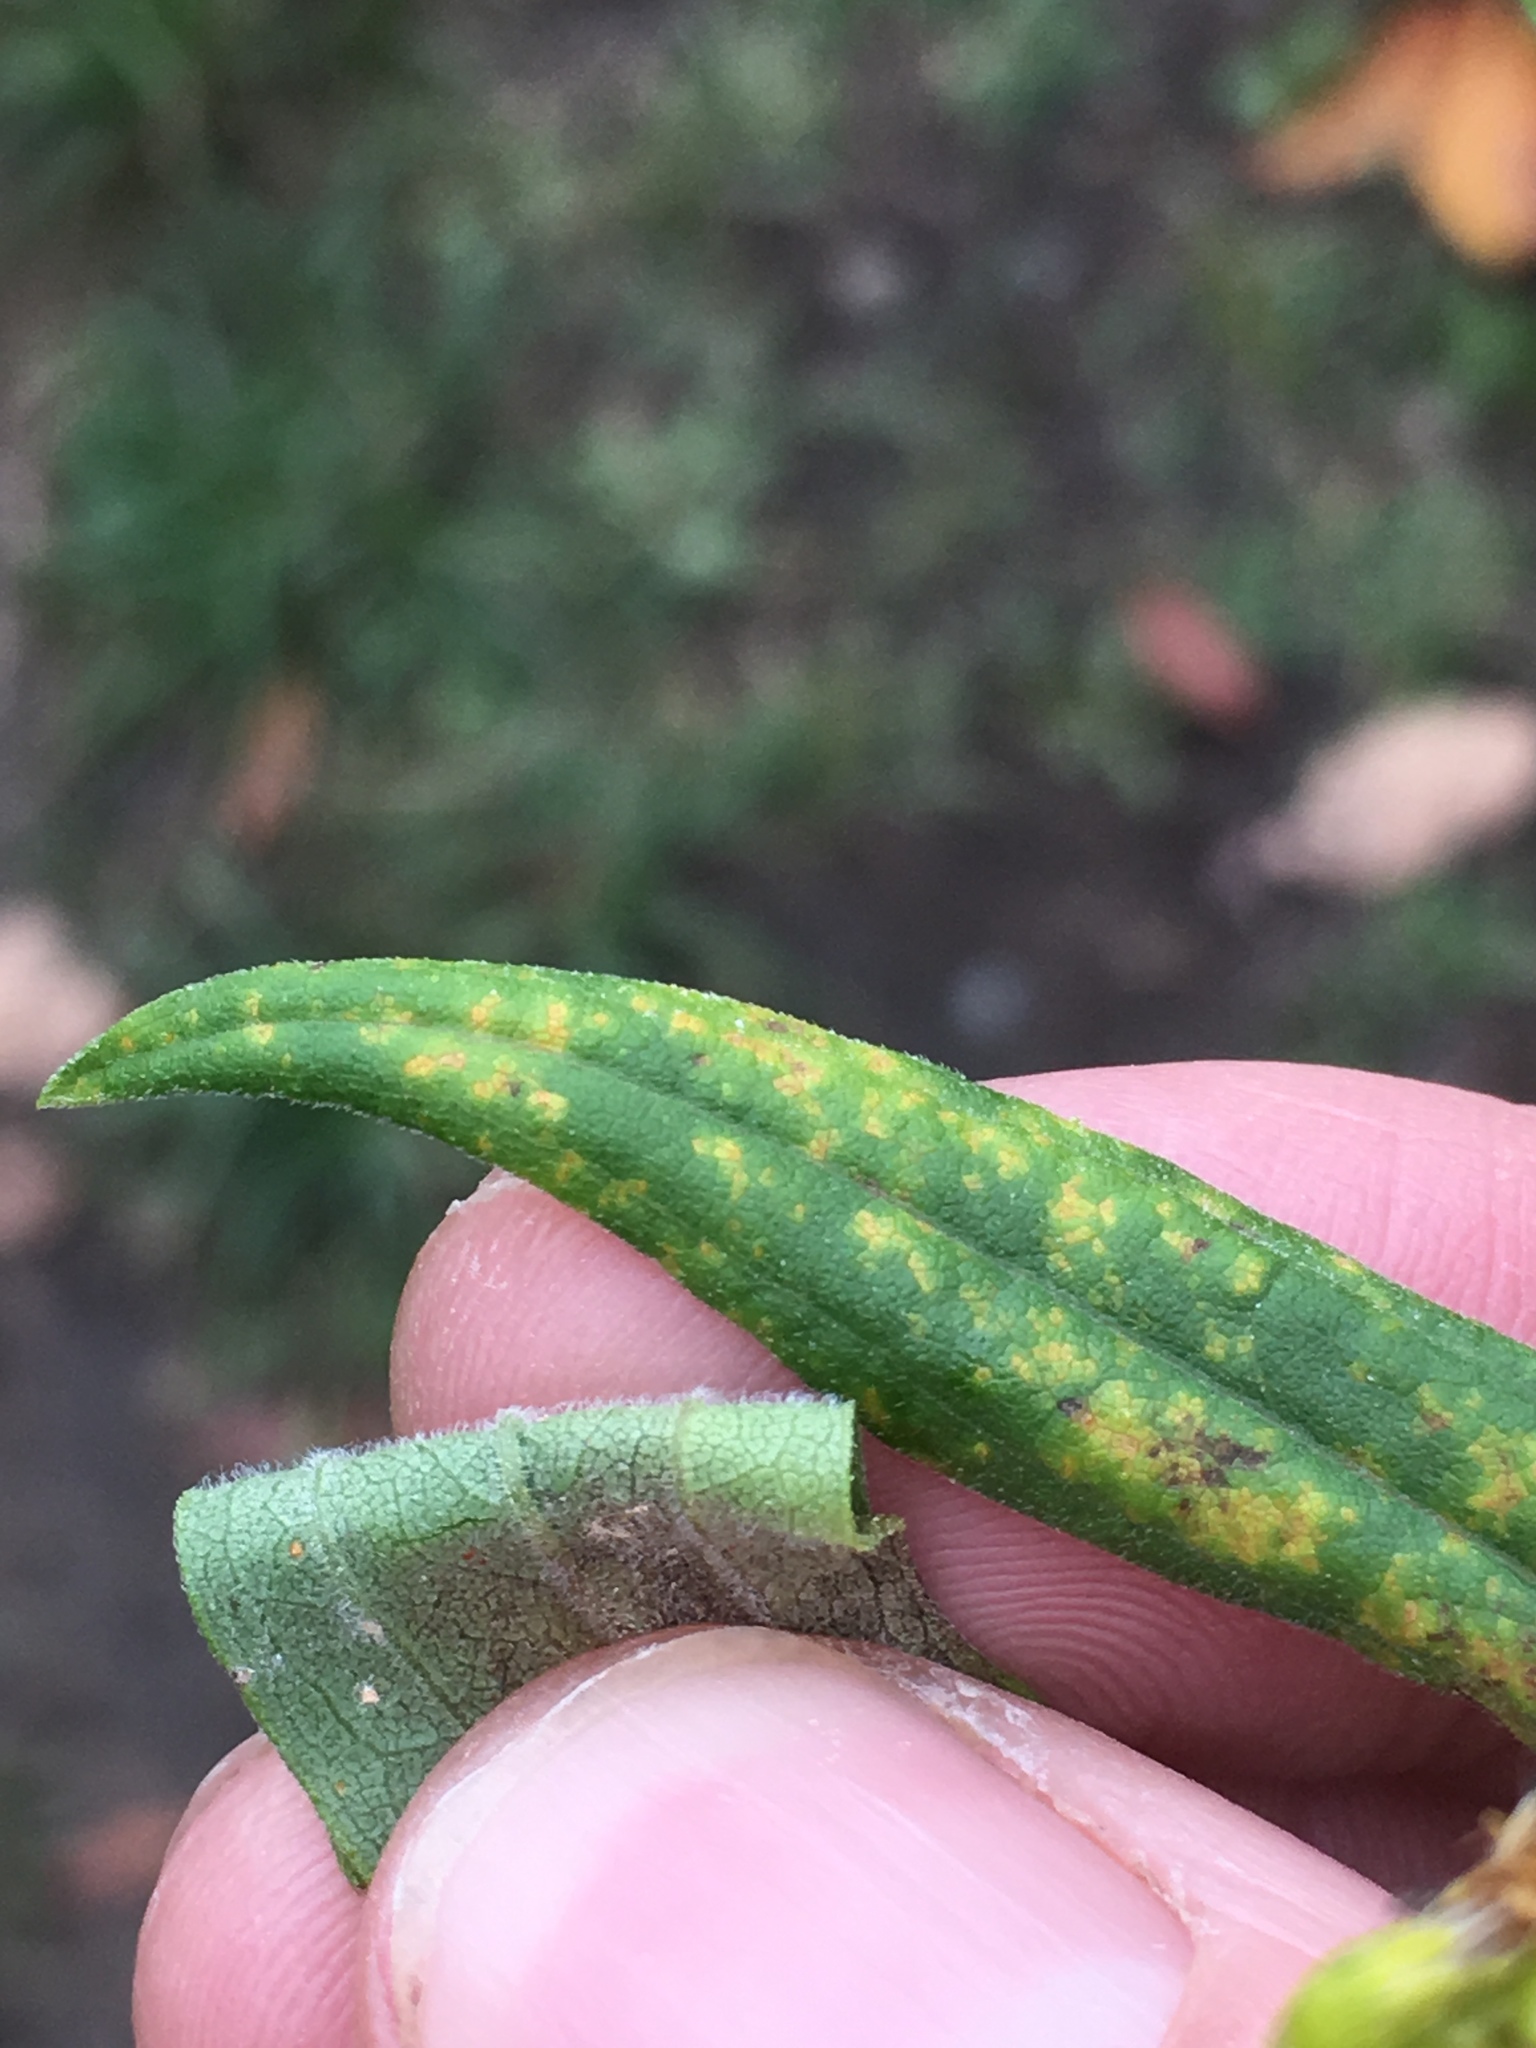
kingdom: Plantae
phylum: Tracheophyta
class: Magnoliopsida
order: Asterales
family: Asteraceae
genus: Solidago
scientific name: Solidago altissima
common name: Late goldenrod
